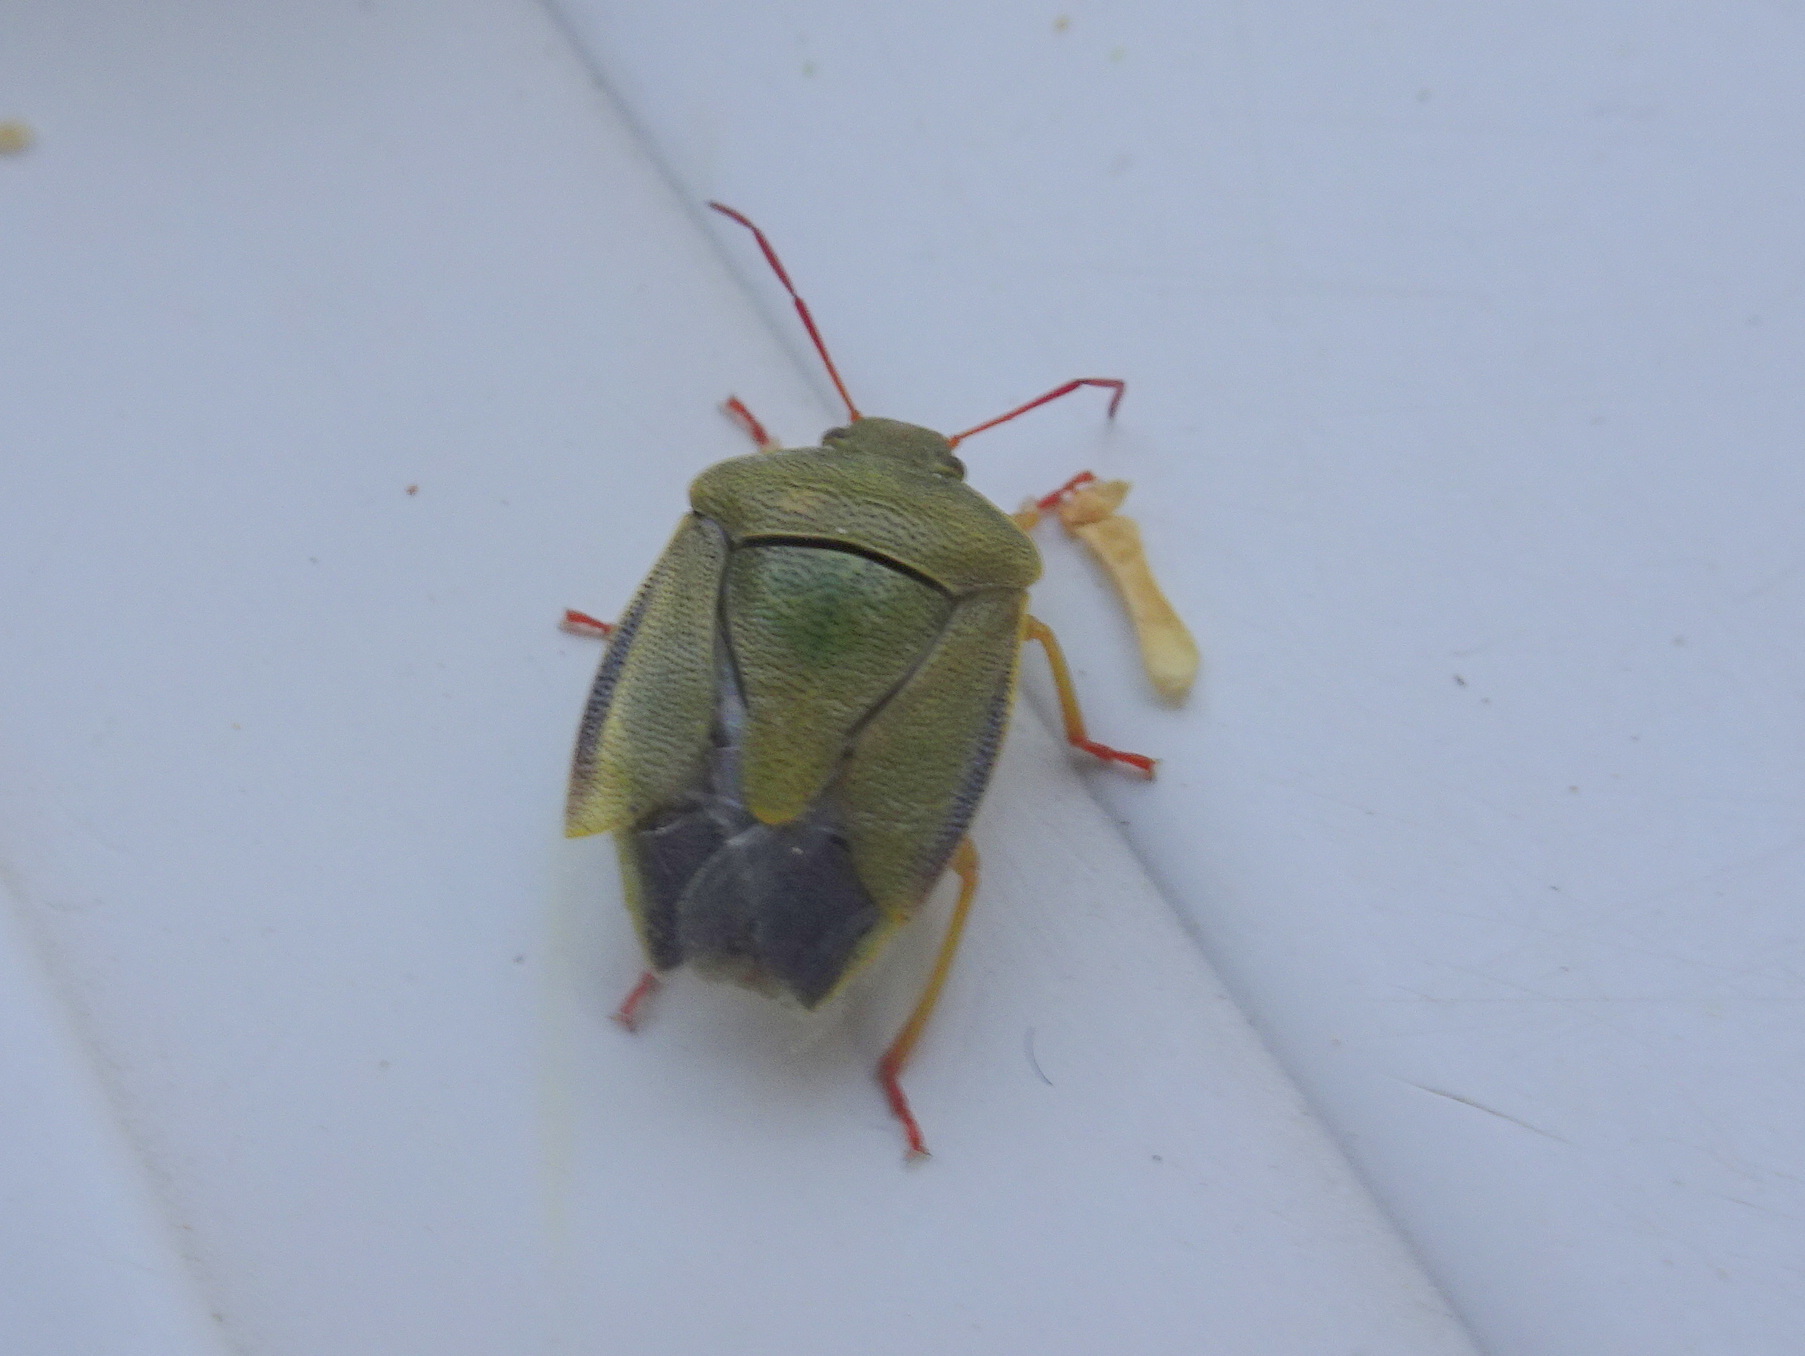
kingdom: Animalia
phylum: Arthropoda
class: Insecta
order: Hemiptera
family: Pentatomidae
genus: Piezodorus
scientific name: Piezodorus lituratus
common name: Stink bug
